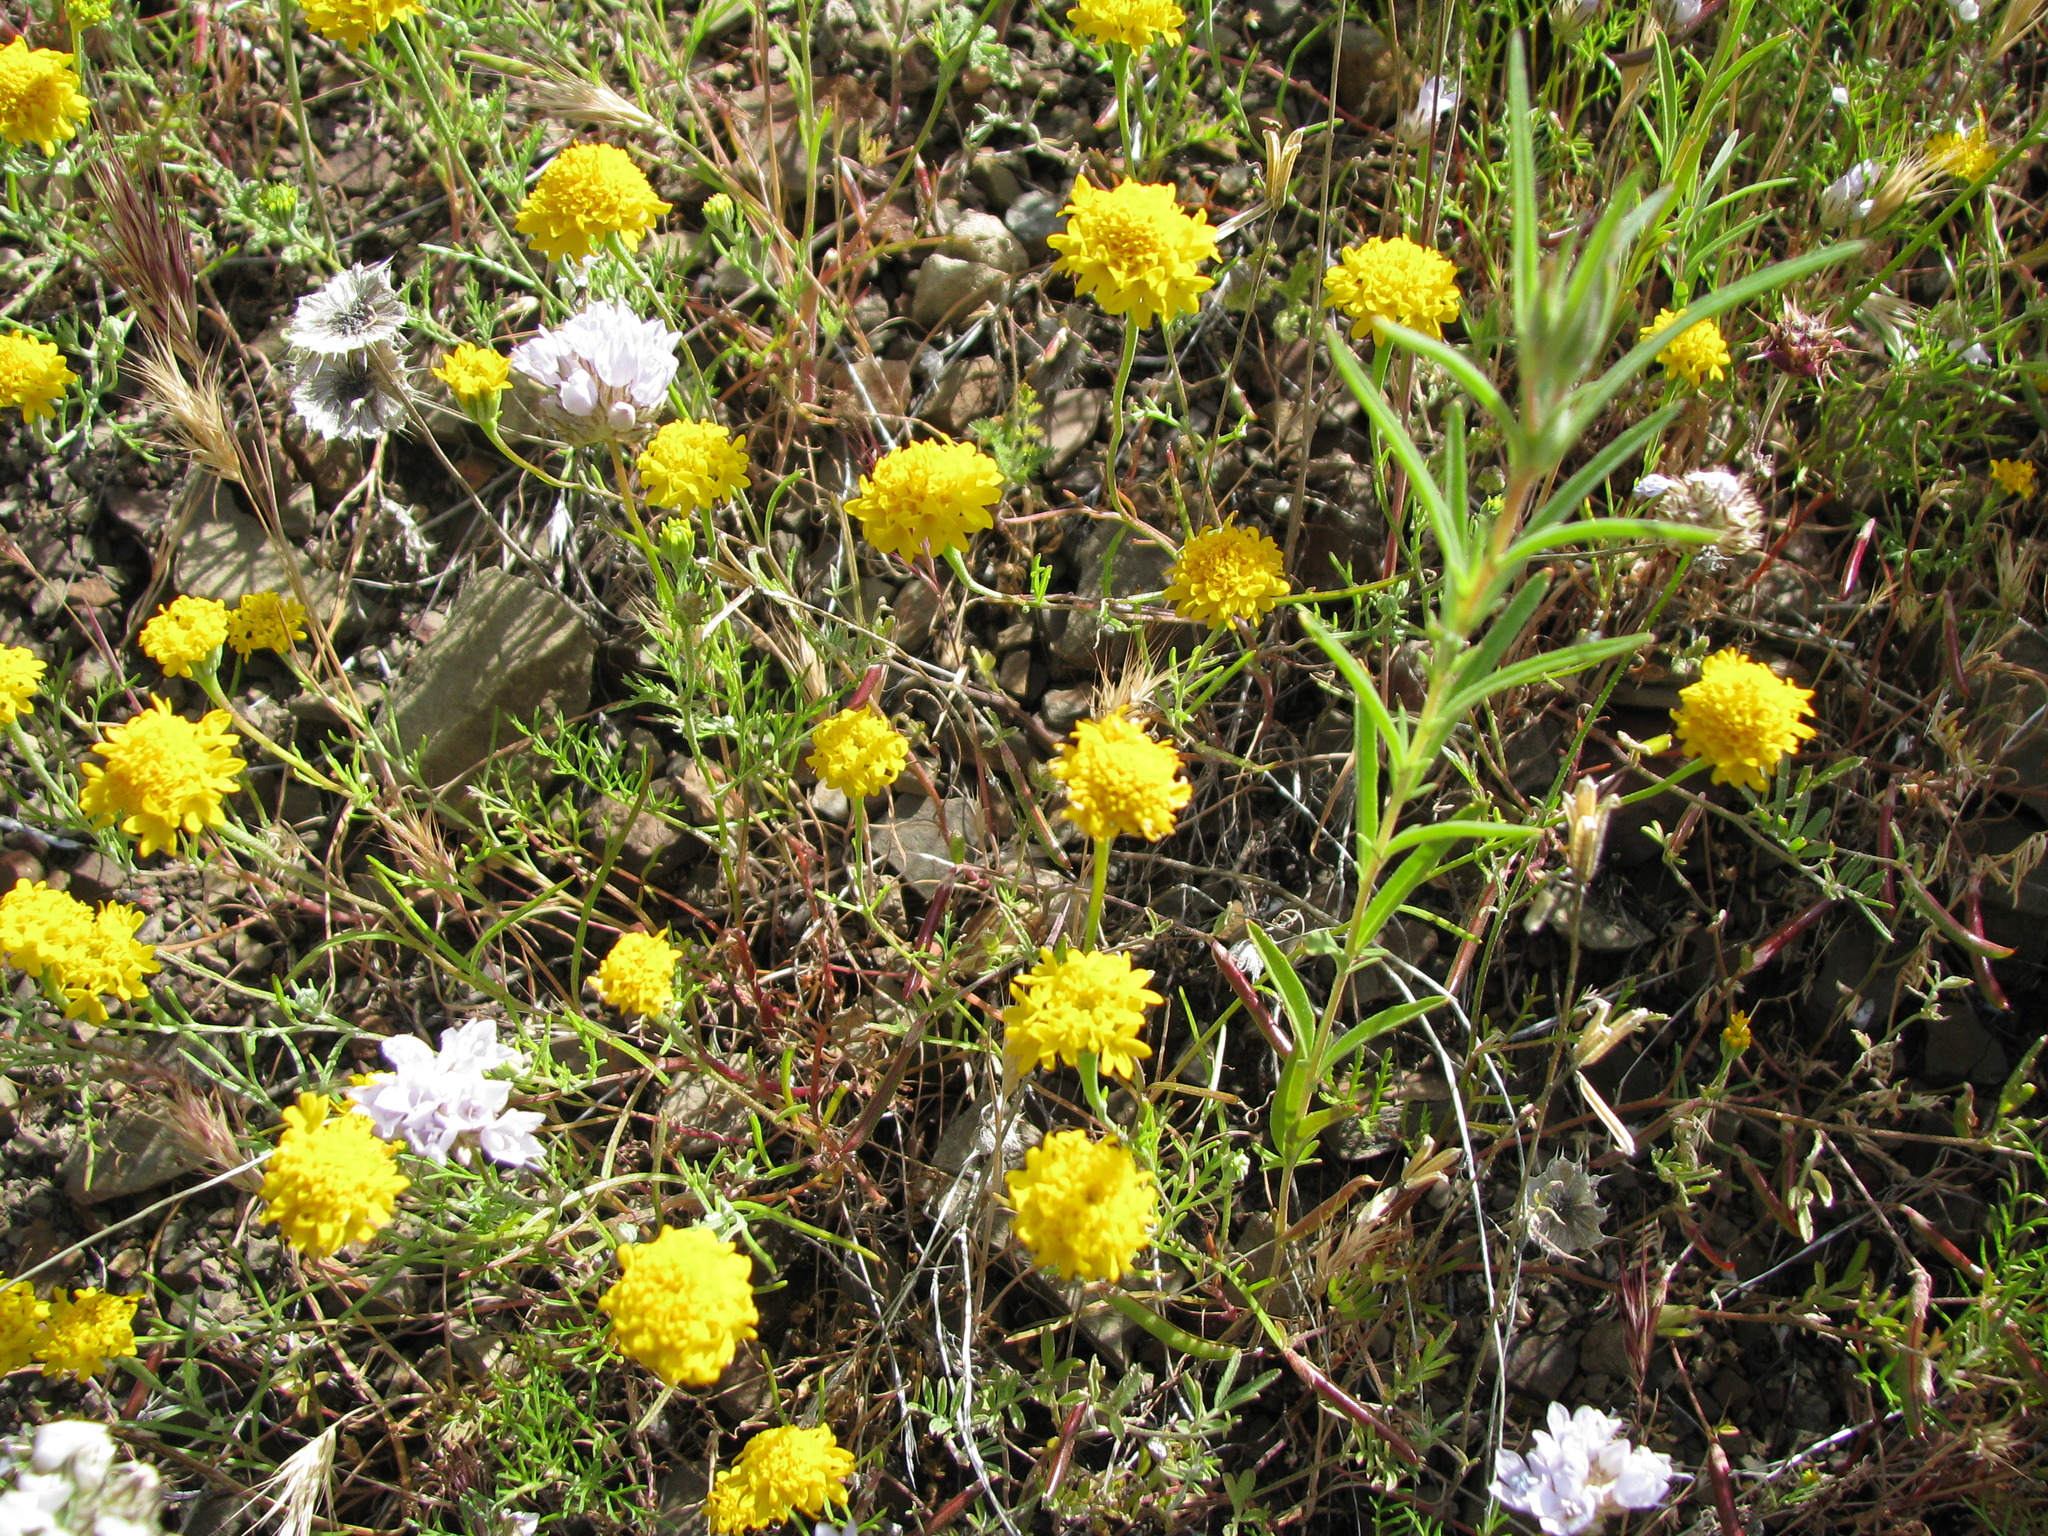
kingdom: Plantae
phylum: Tracheophyta
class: Magnoliopsida
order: Asterales
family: Asteraceae
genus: Chaenactis
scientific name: Chaenactis glabriuscula
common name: Yellow pincushion
